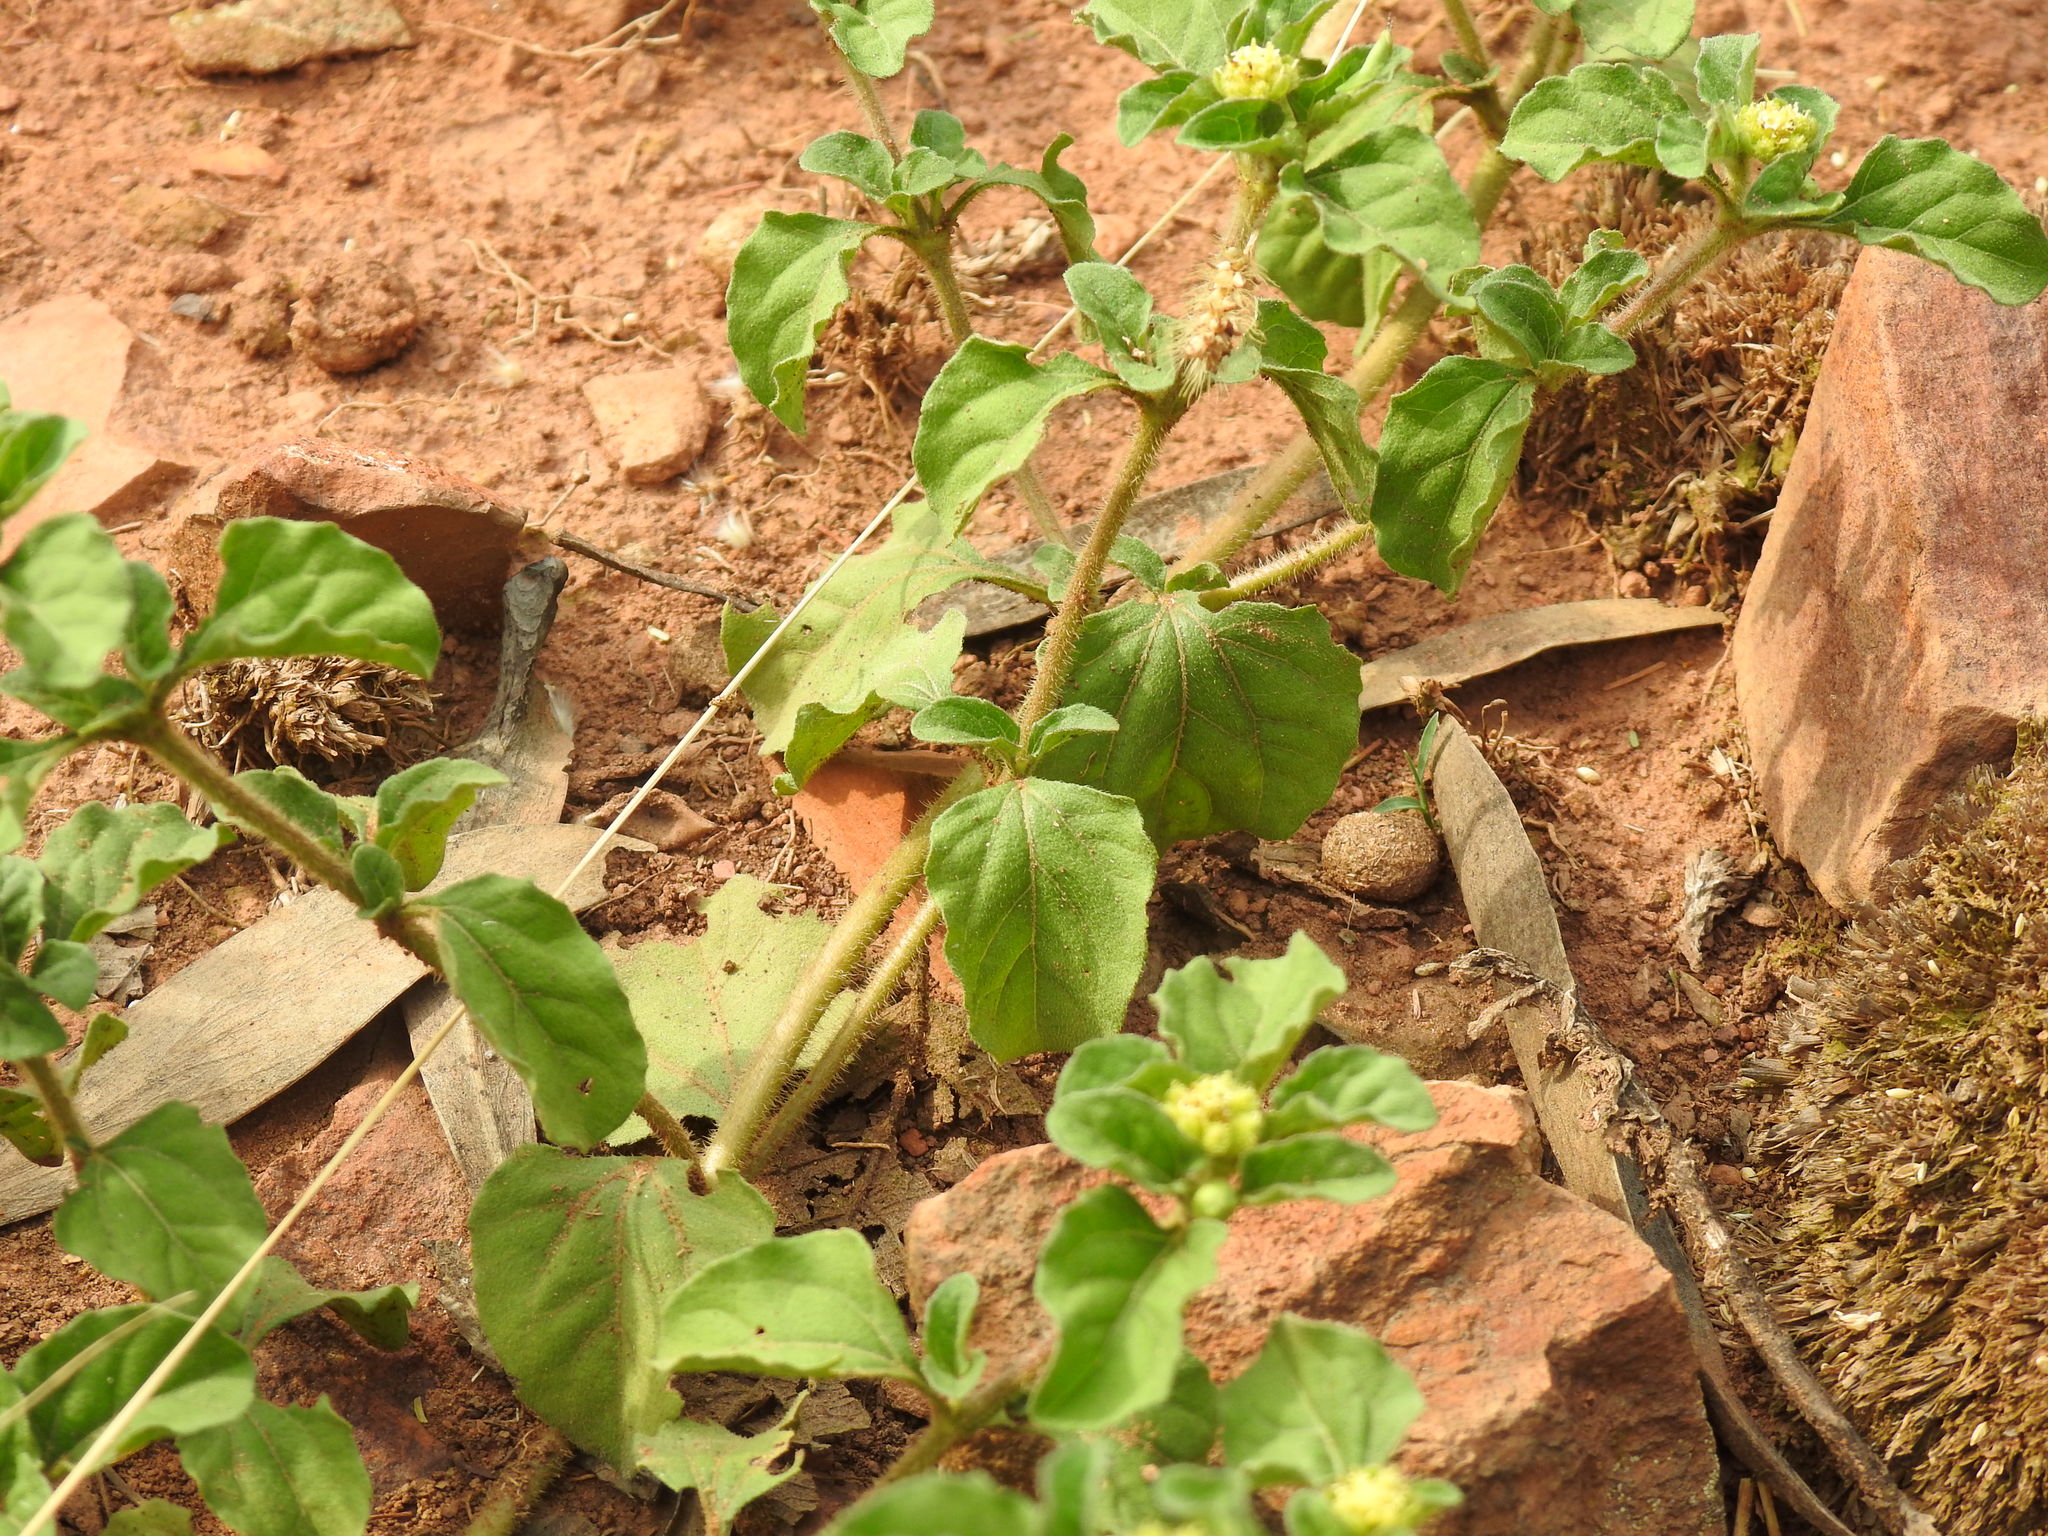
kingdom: Plantae
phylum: Tracheophyta
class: Magnoliopsida
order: Asterales
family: Asteraceae
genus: Acanthospermum
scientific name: Acanthospermum australe
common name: Paraguayan starbur
